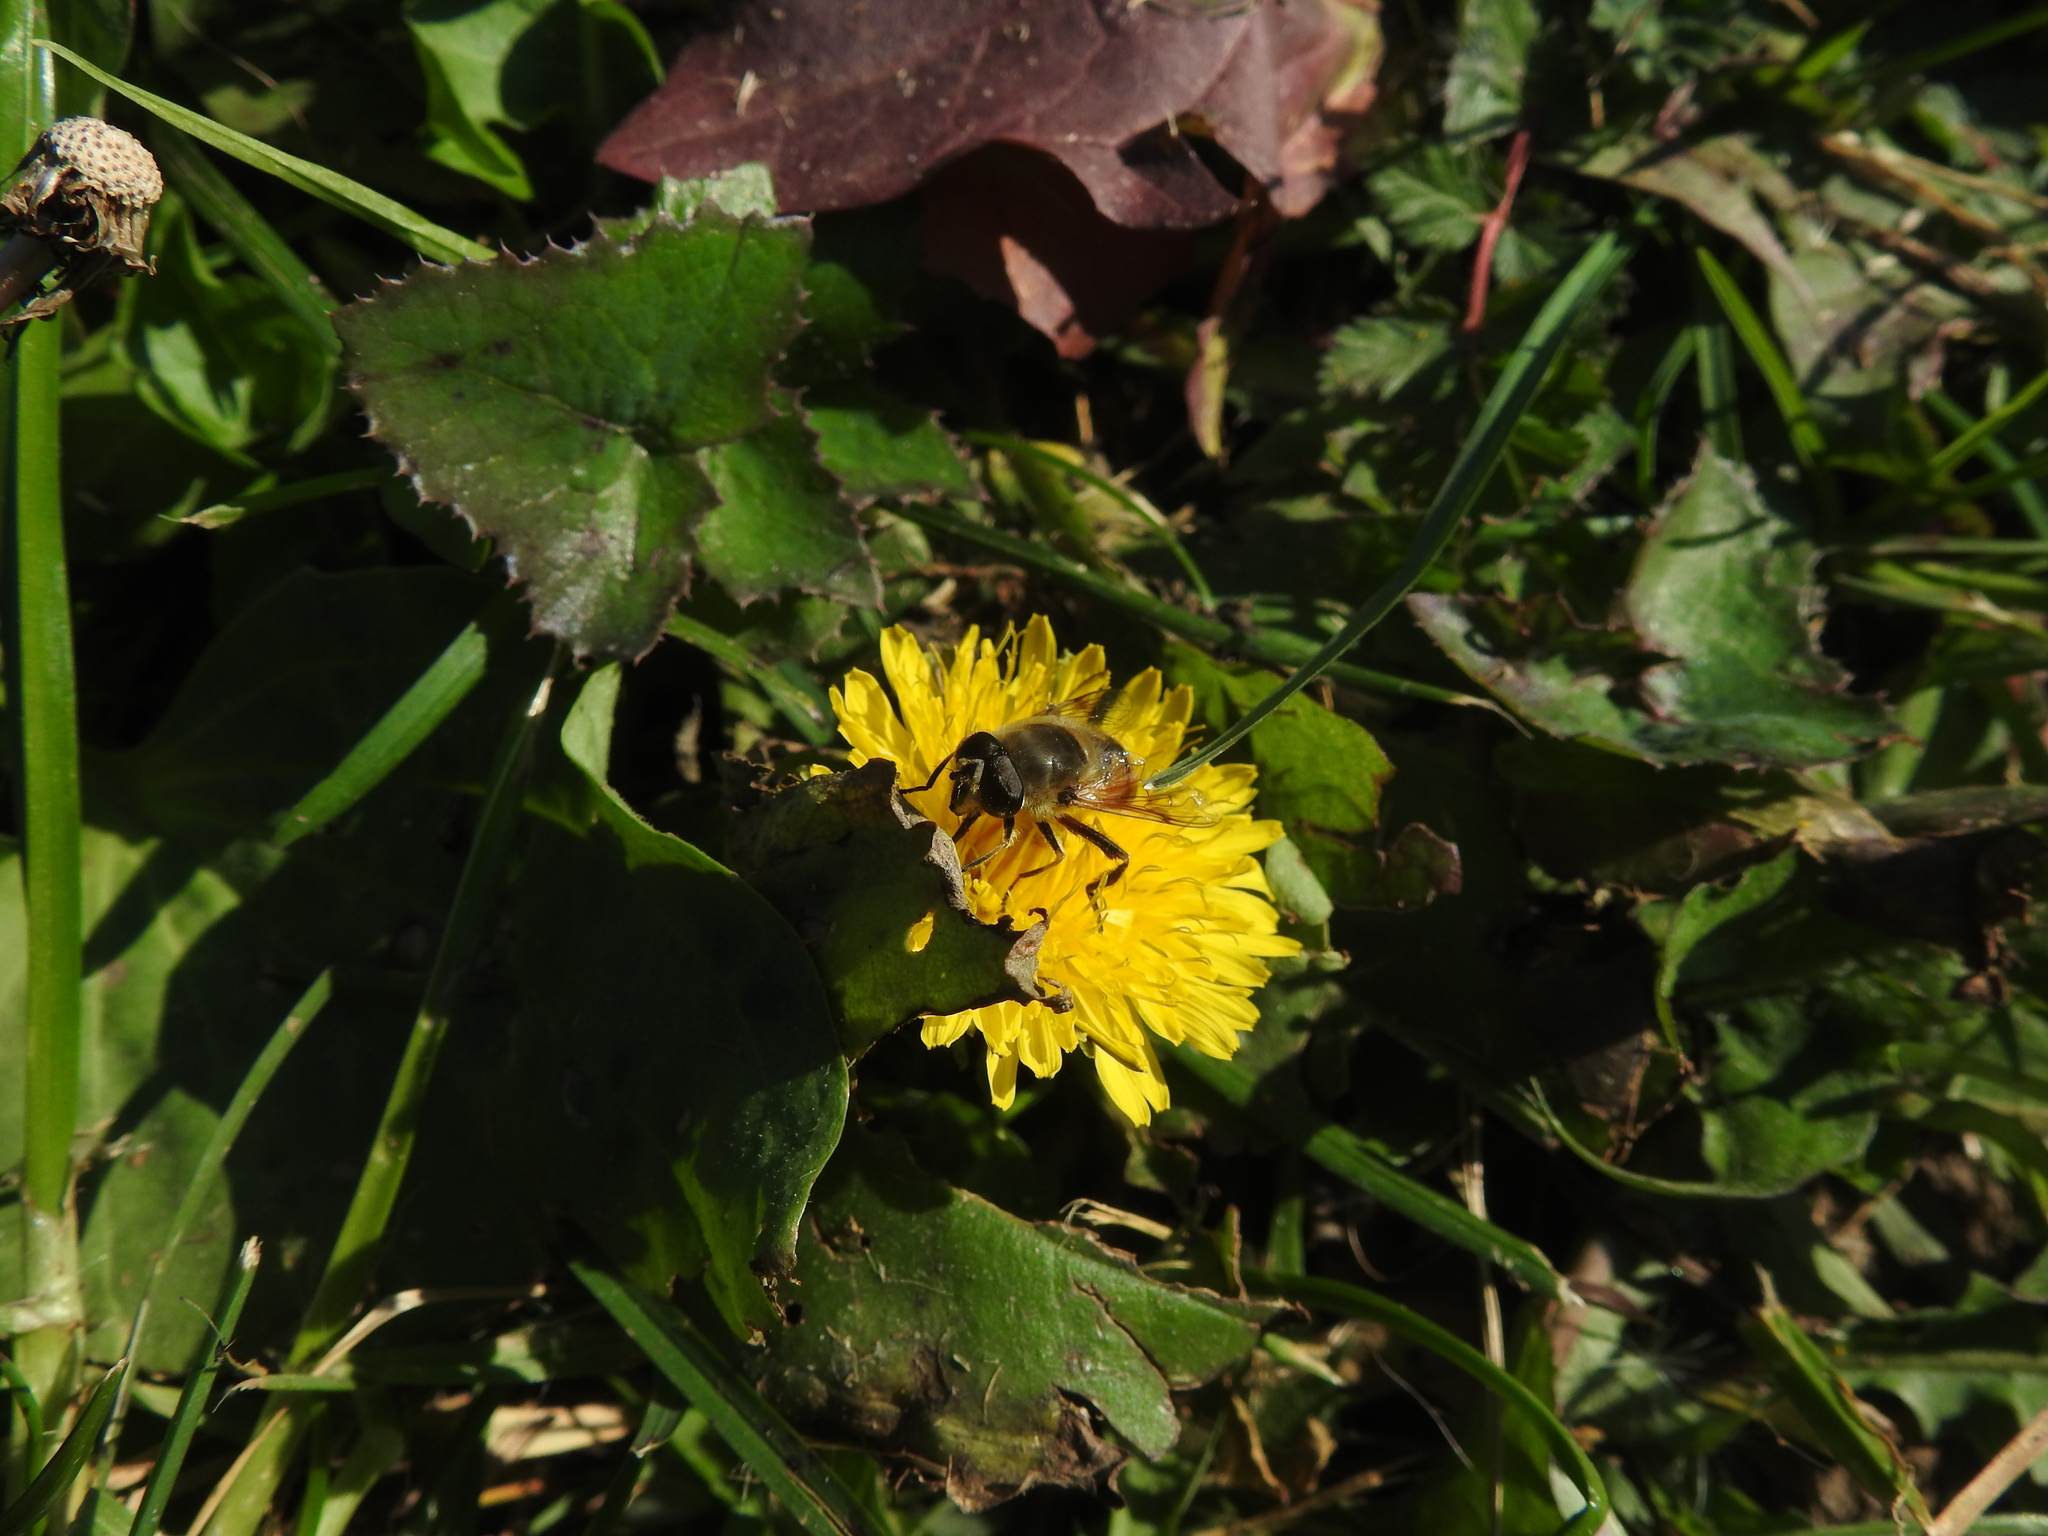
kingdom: Animalia
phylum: Arthropoda
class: Insecta
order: Diptera
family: Syrphidae
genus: Eristalis
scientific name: Eristalis tenax
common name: Drone fly
